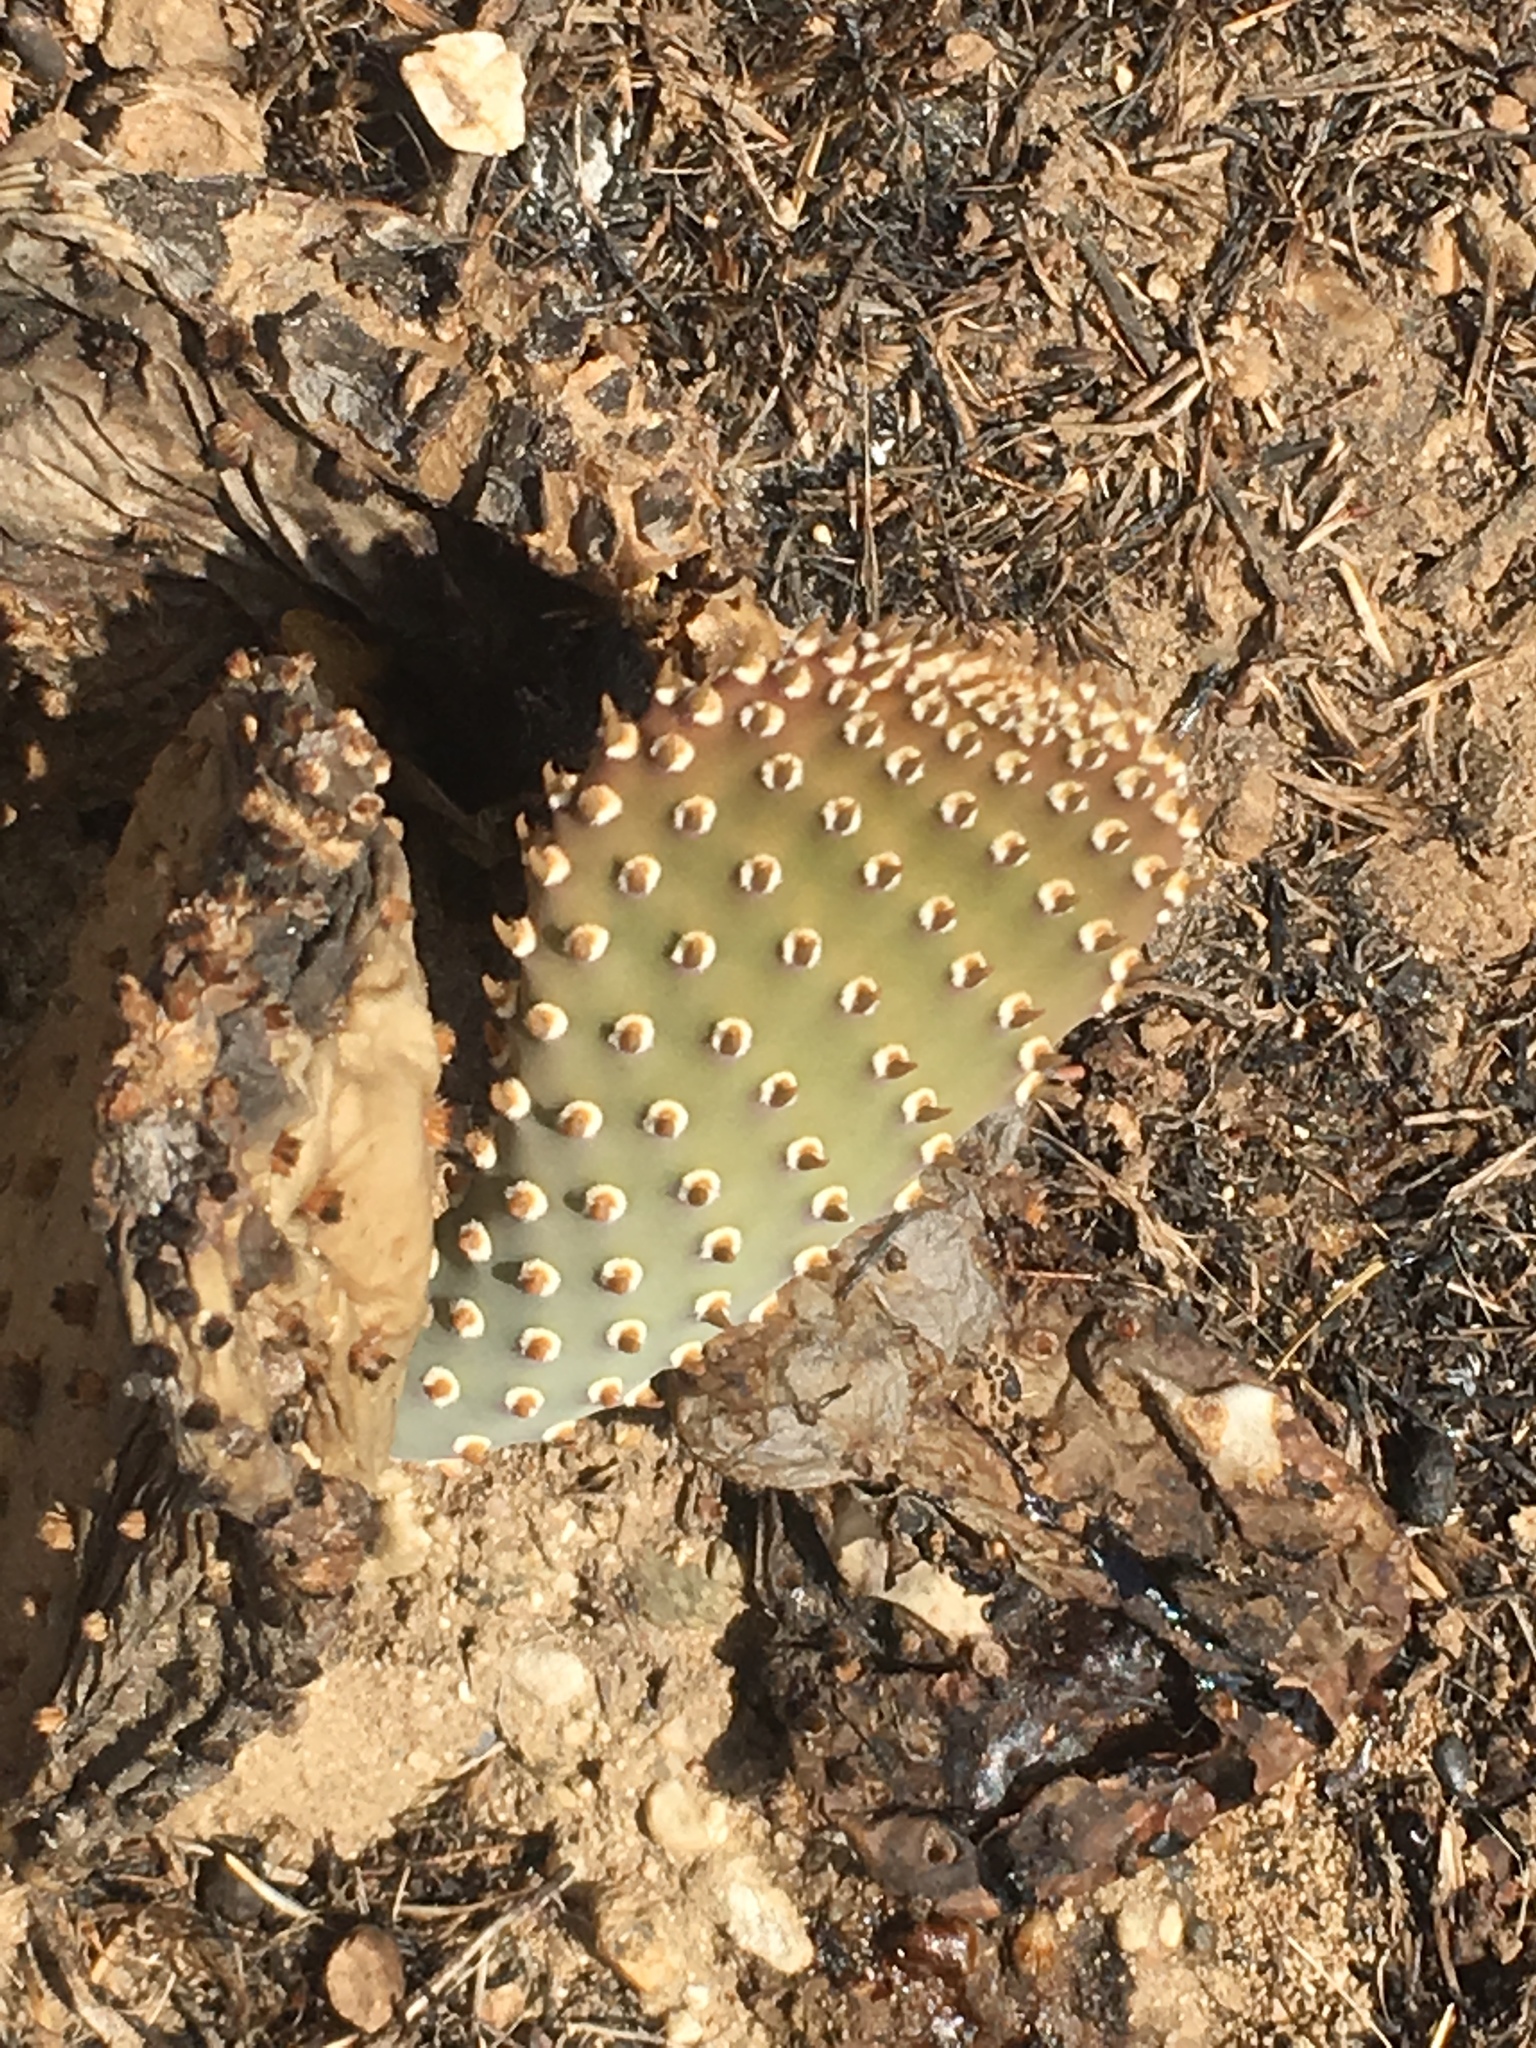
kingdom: Plantae
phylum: Tracheophyta
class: Magnoliopsida
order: Caryophyllales
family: Cactaceae
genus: Opuntia
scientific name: Opuntia basilaris
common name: Beavertail prickly-pear
